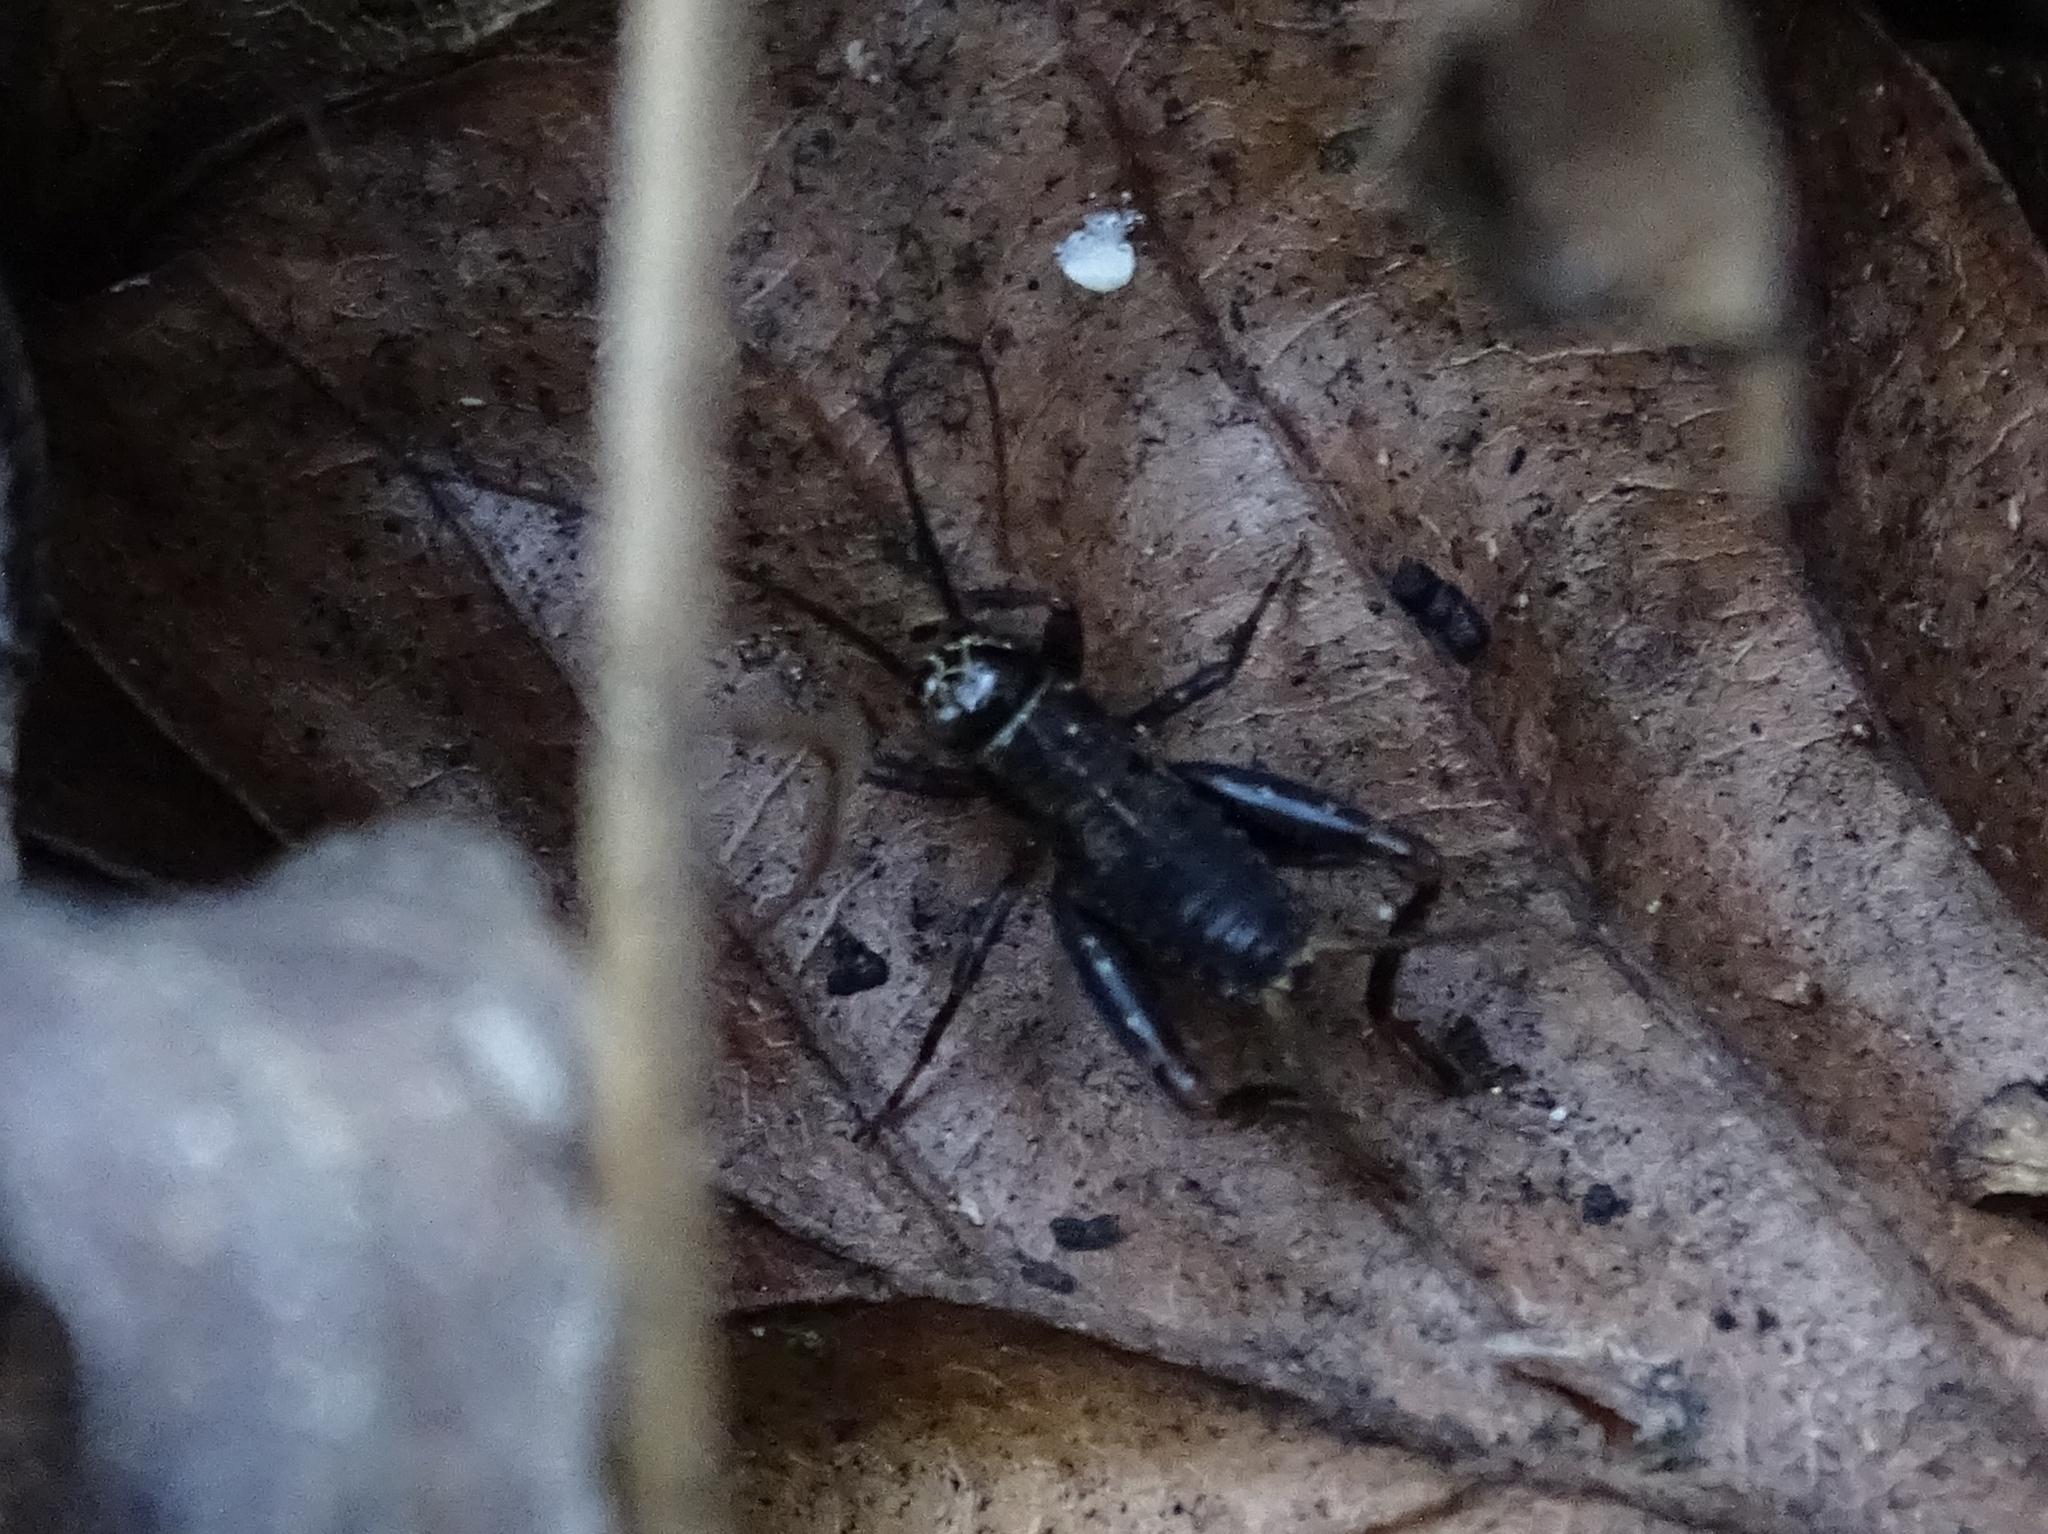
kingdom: Animalia
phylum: Arthropoda
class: Insecta
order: Orthoptera
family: Trigonidiidae
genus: Nemobius
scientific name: Nemobius sylvestris
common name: Wood-cricket
